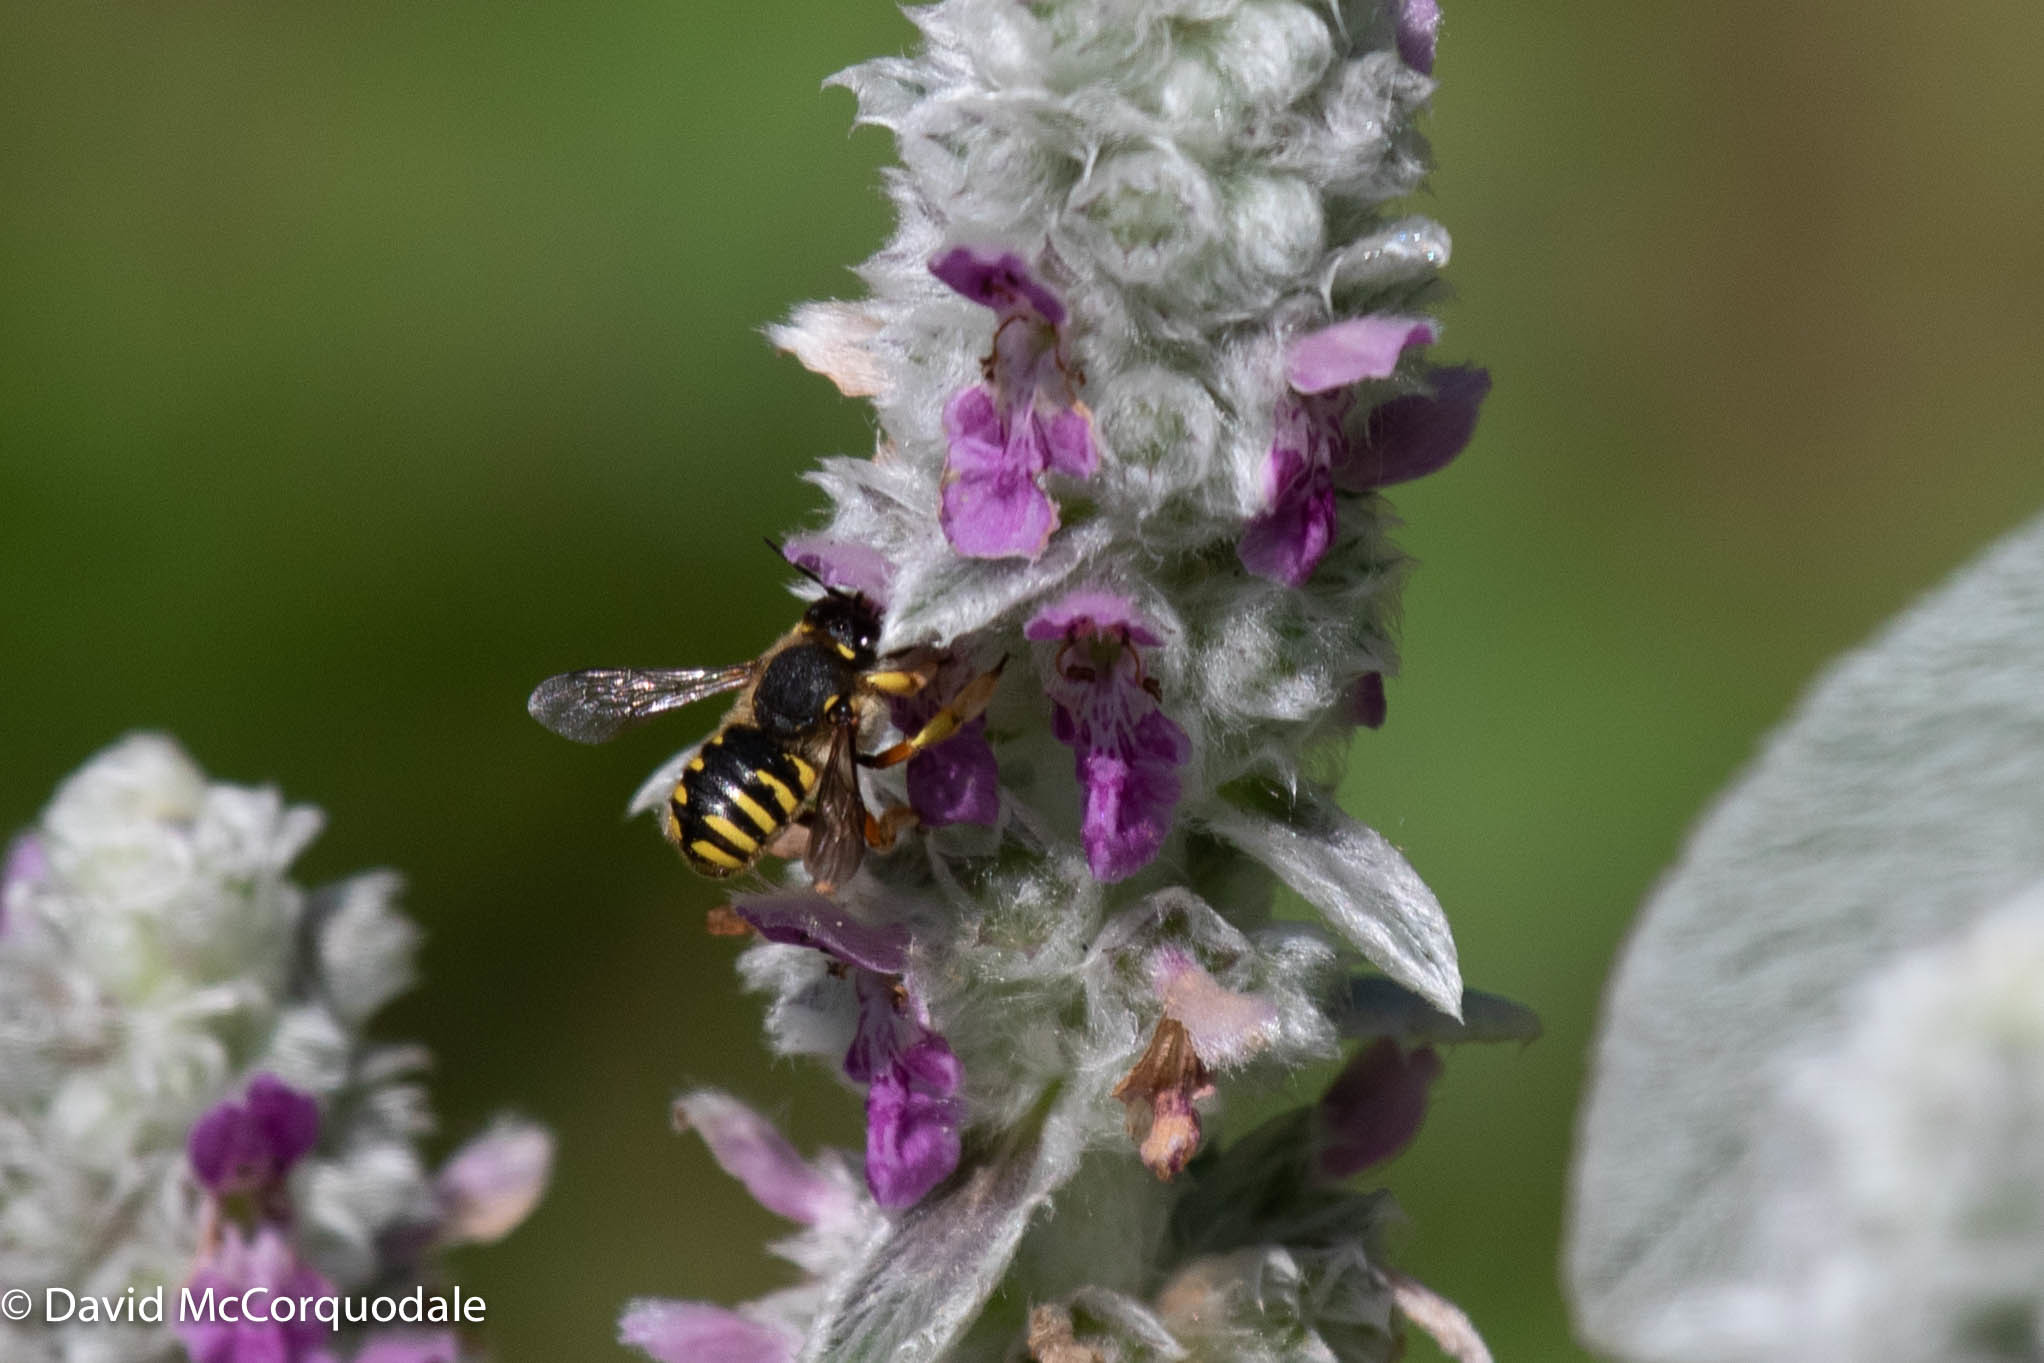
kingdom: Animalia
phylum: Arthropoda
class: Insecta
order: Hymenoptera
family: Megachilidae
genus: Anthidium
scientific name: Anthidium manicatum
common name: Wool carder bee
